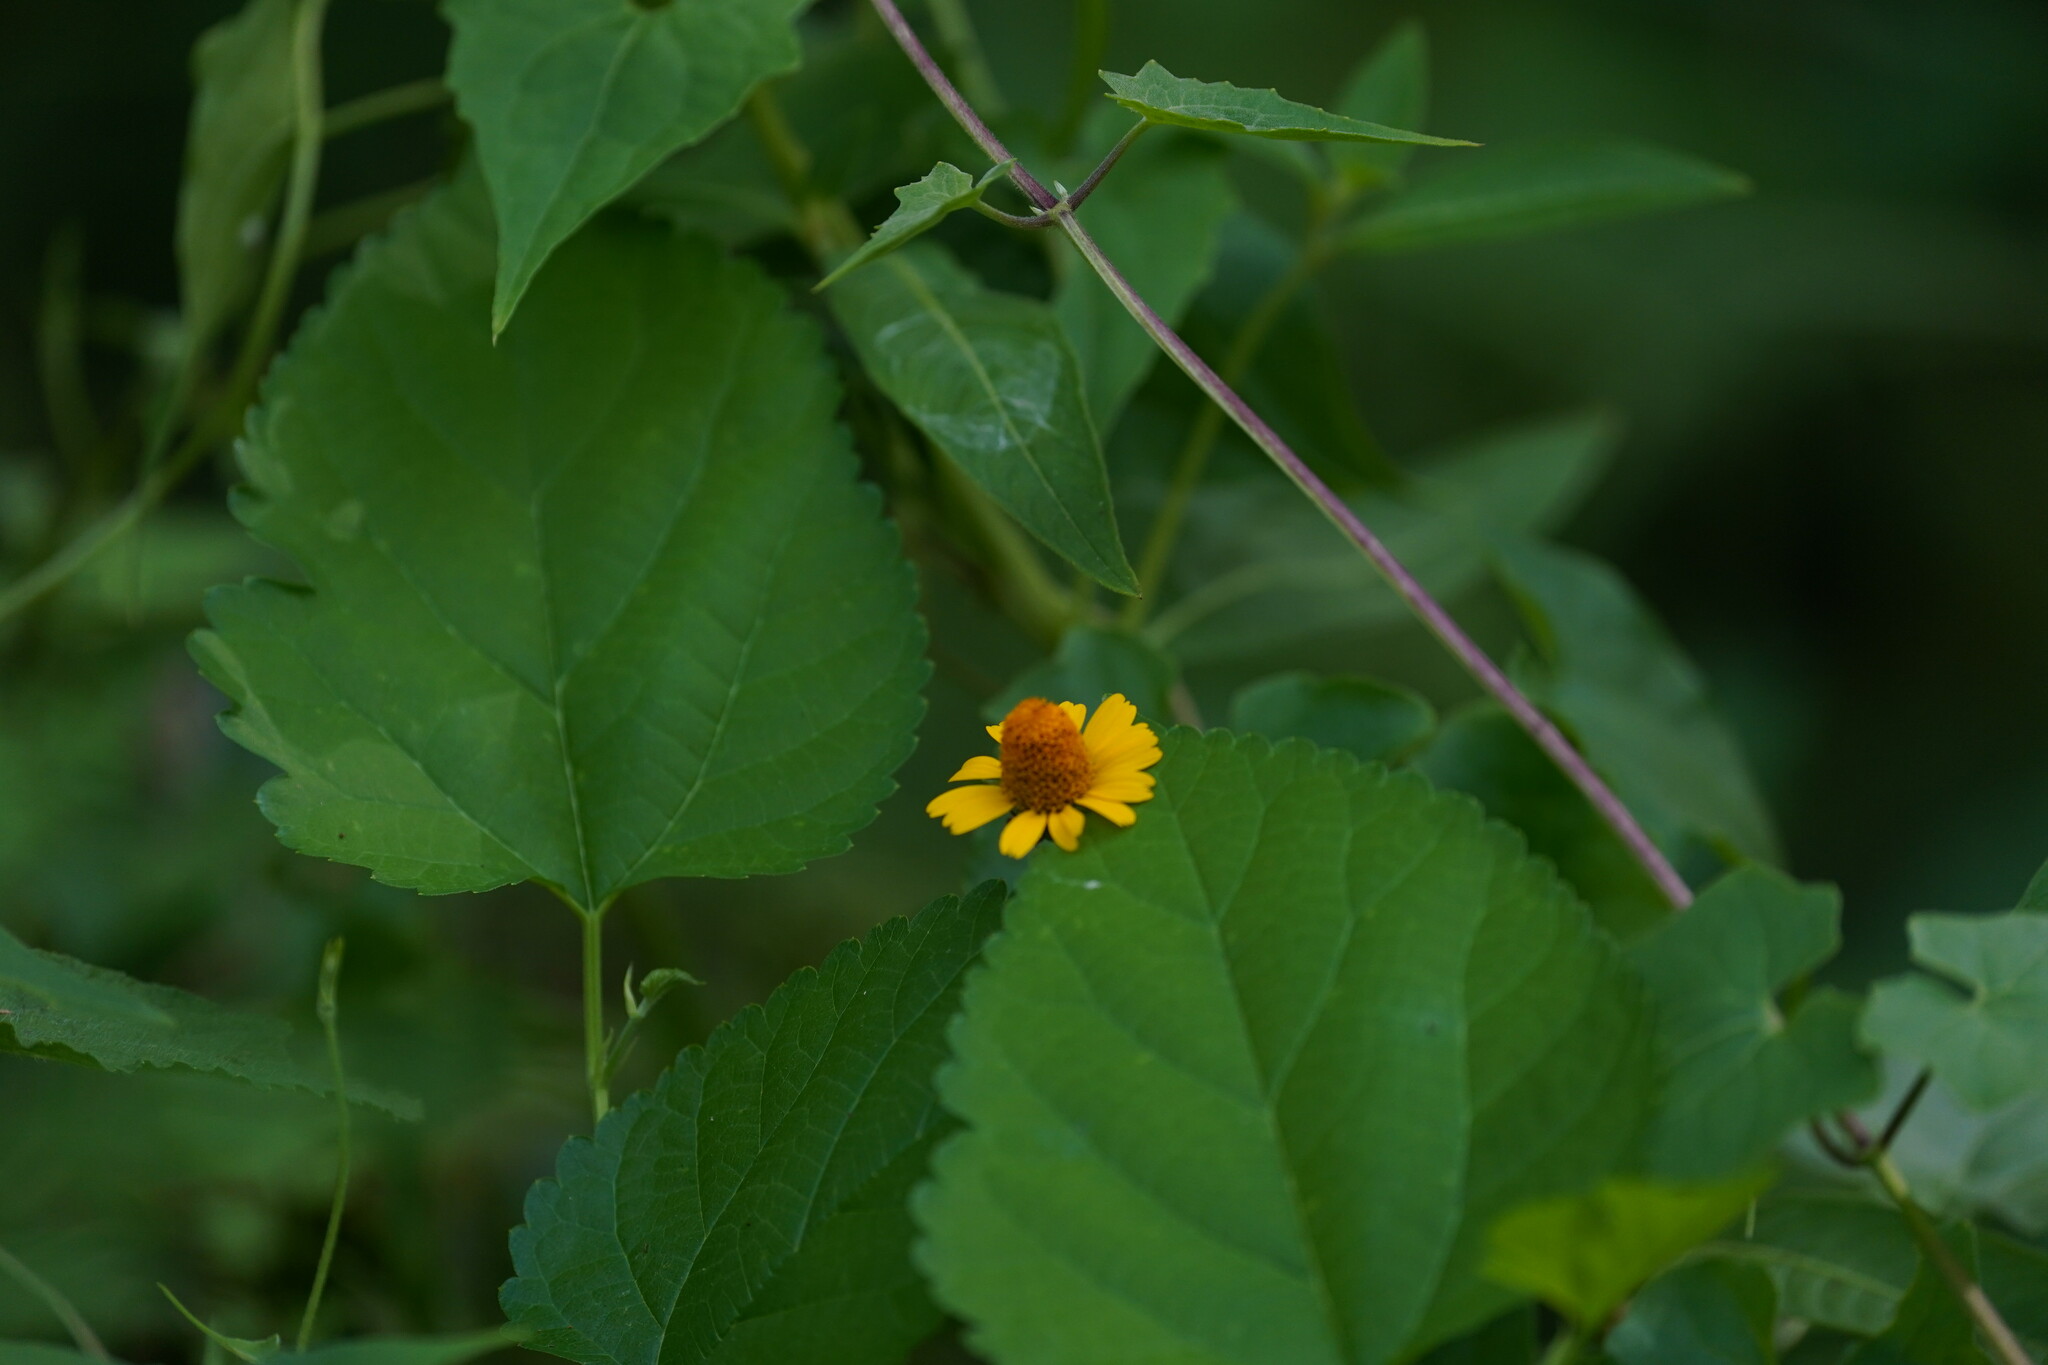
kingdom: Plantae
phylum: Tracheophyta
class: Magnoliopsida
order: Asterales
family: Asteraceae
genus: Acmella
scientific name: Acmella repens
